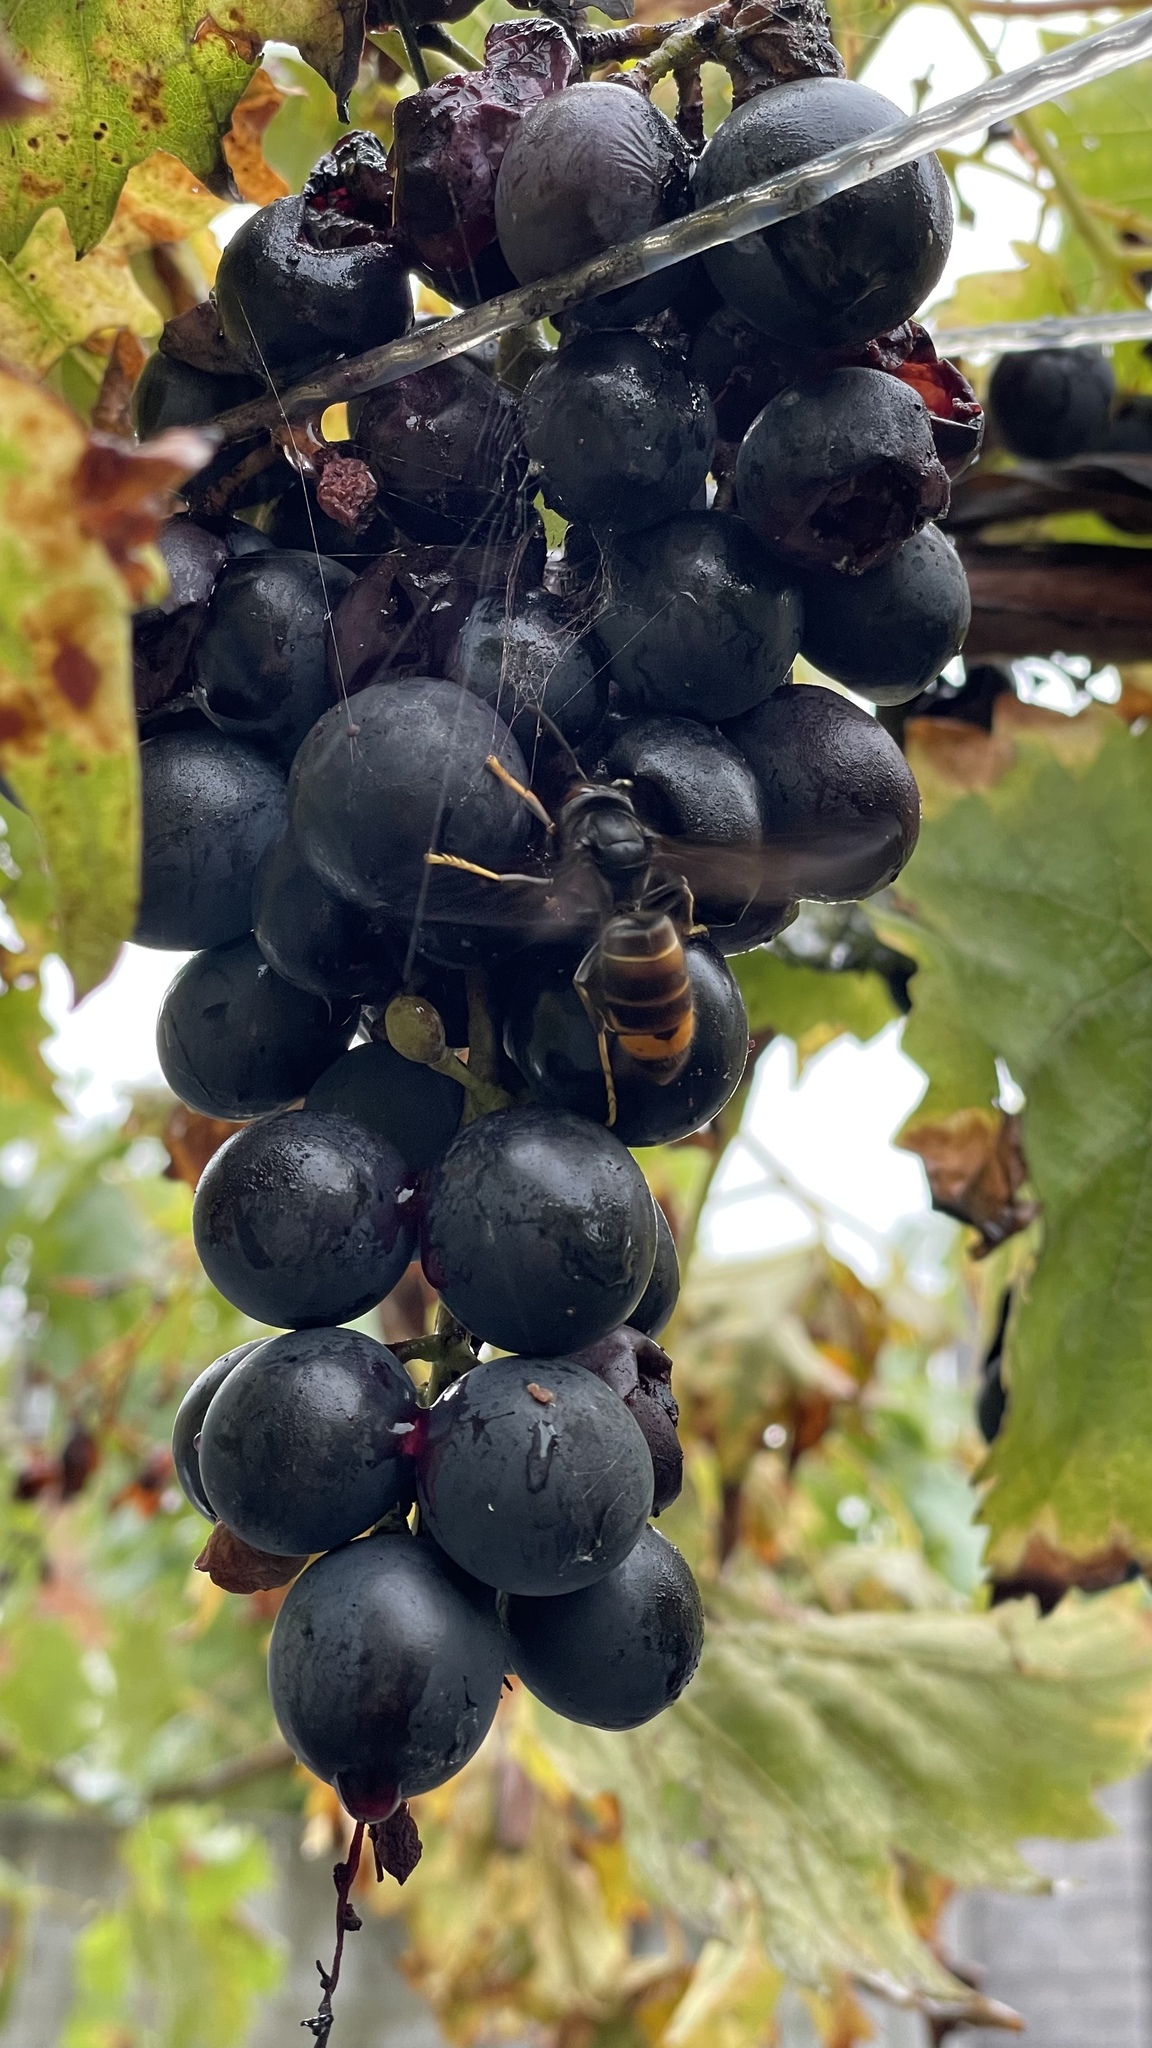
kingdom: Animalia
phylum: Arthropoda
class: Insecta
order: Hymenoptera
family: Vespidae
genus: Vespa
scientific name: Vespa velutina
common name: Asian hornet
